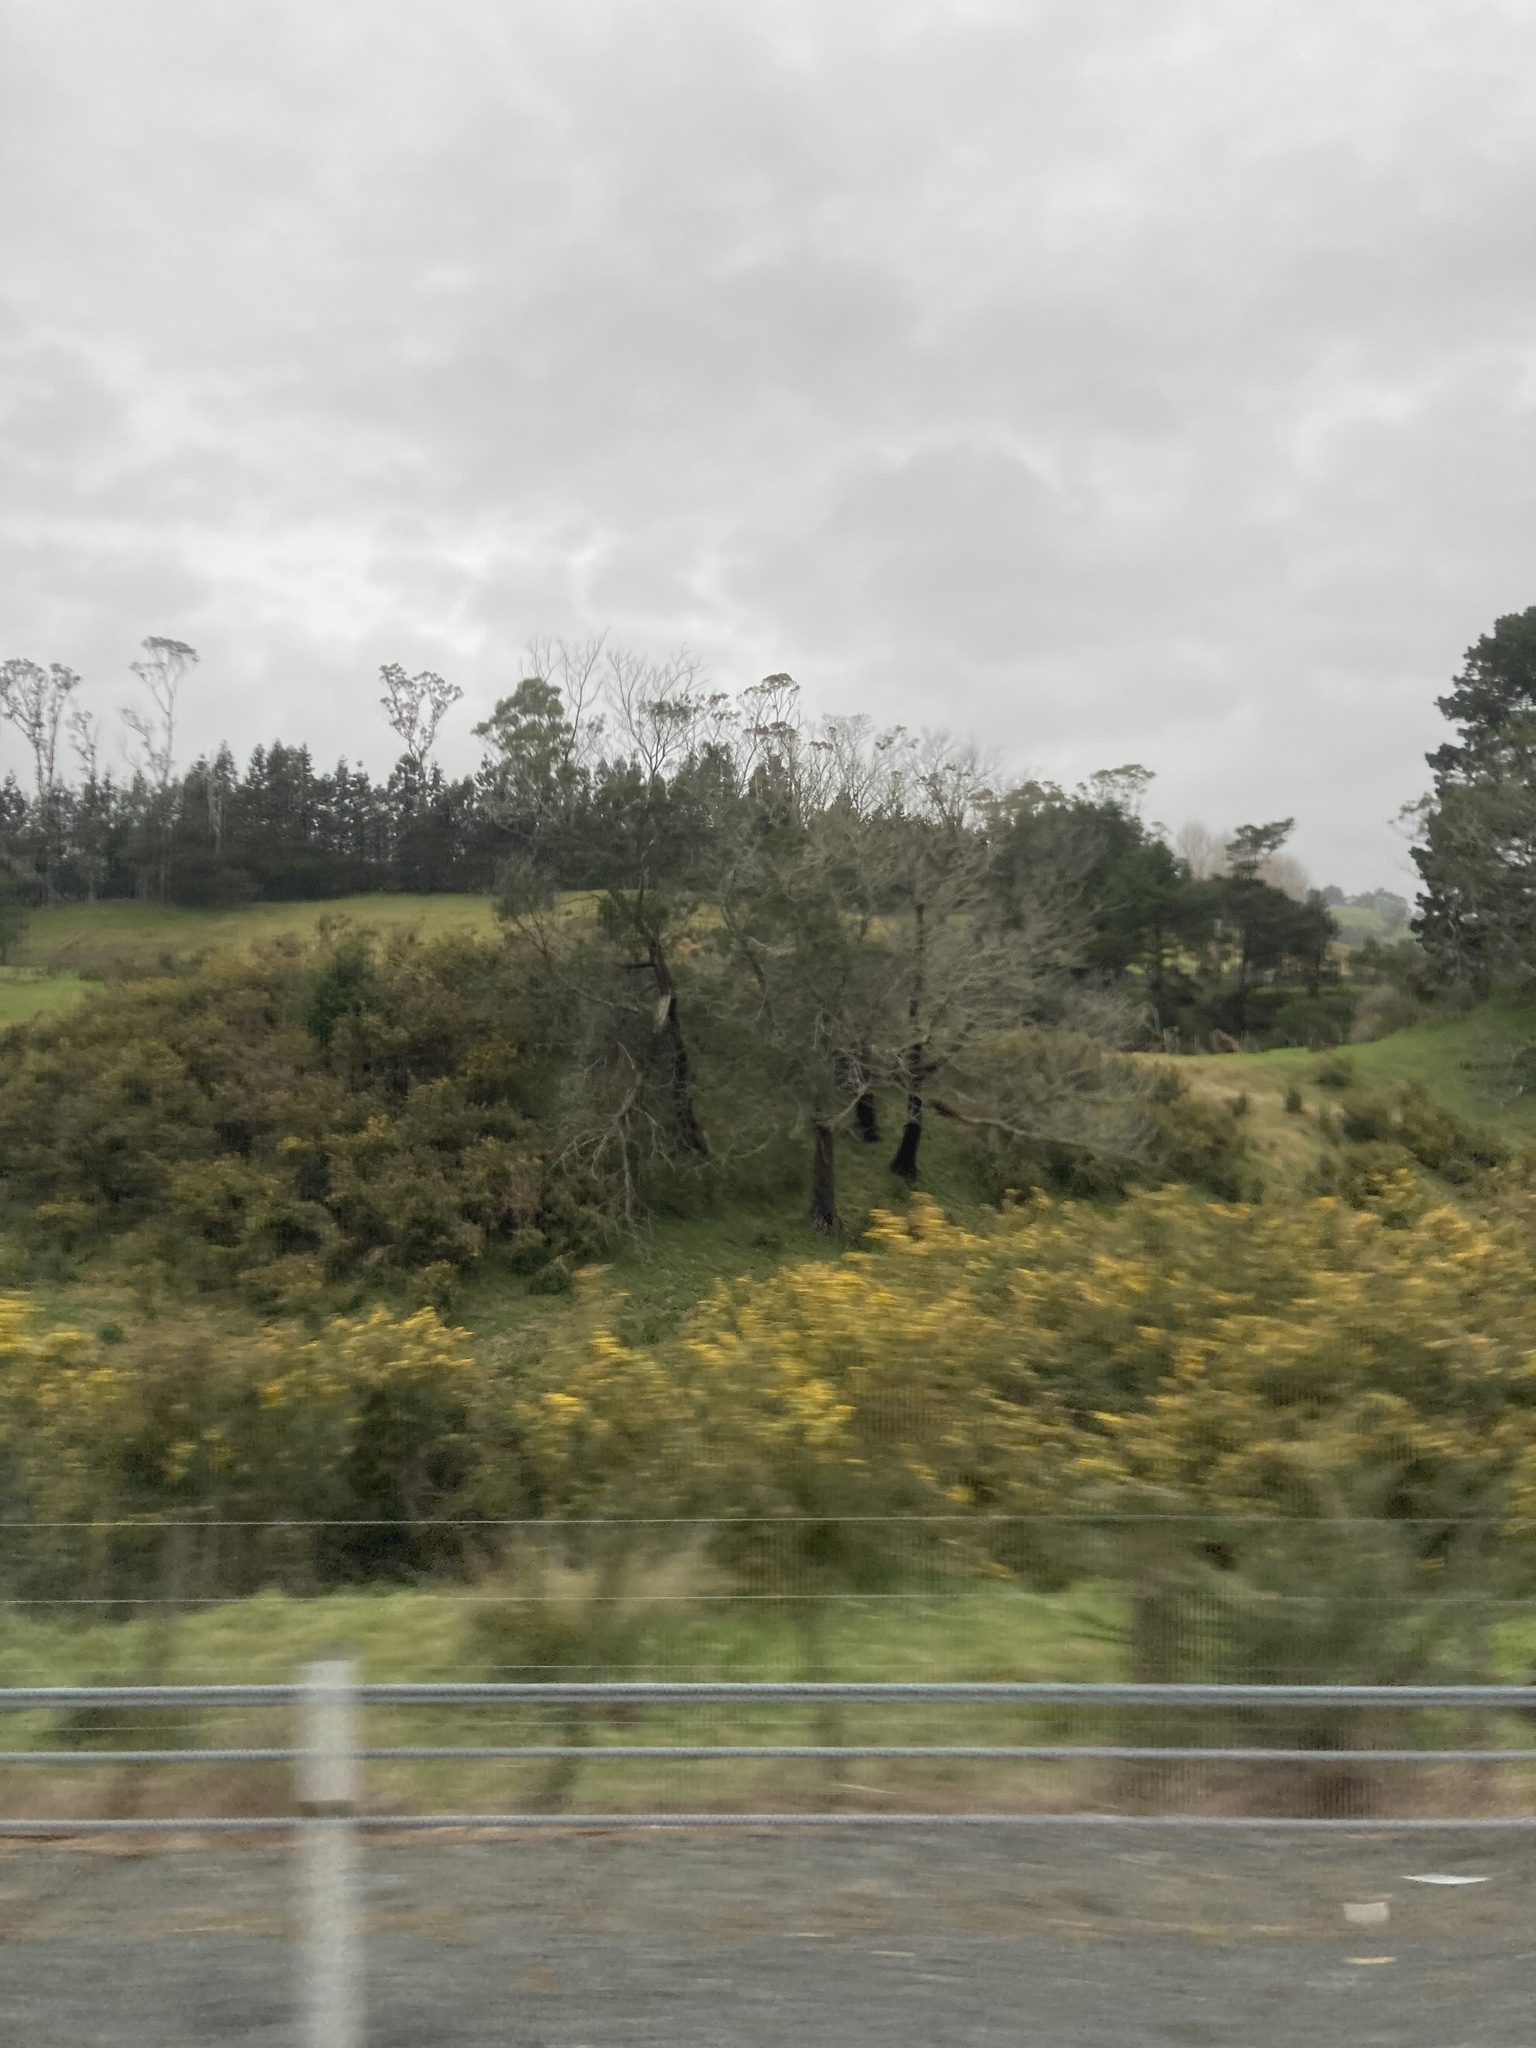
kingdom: Plantae
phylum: Tracheophyta
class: Magnoliopsida
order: Fabales
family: Fabaceae
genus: Ulex
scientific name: Ulex europaeus
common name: Common gorse
